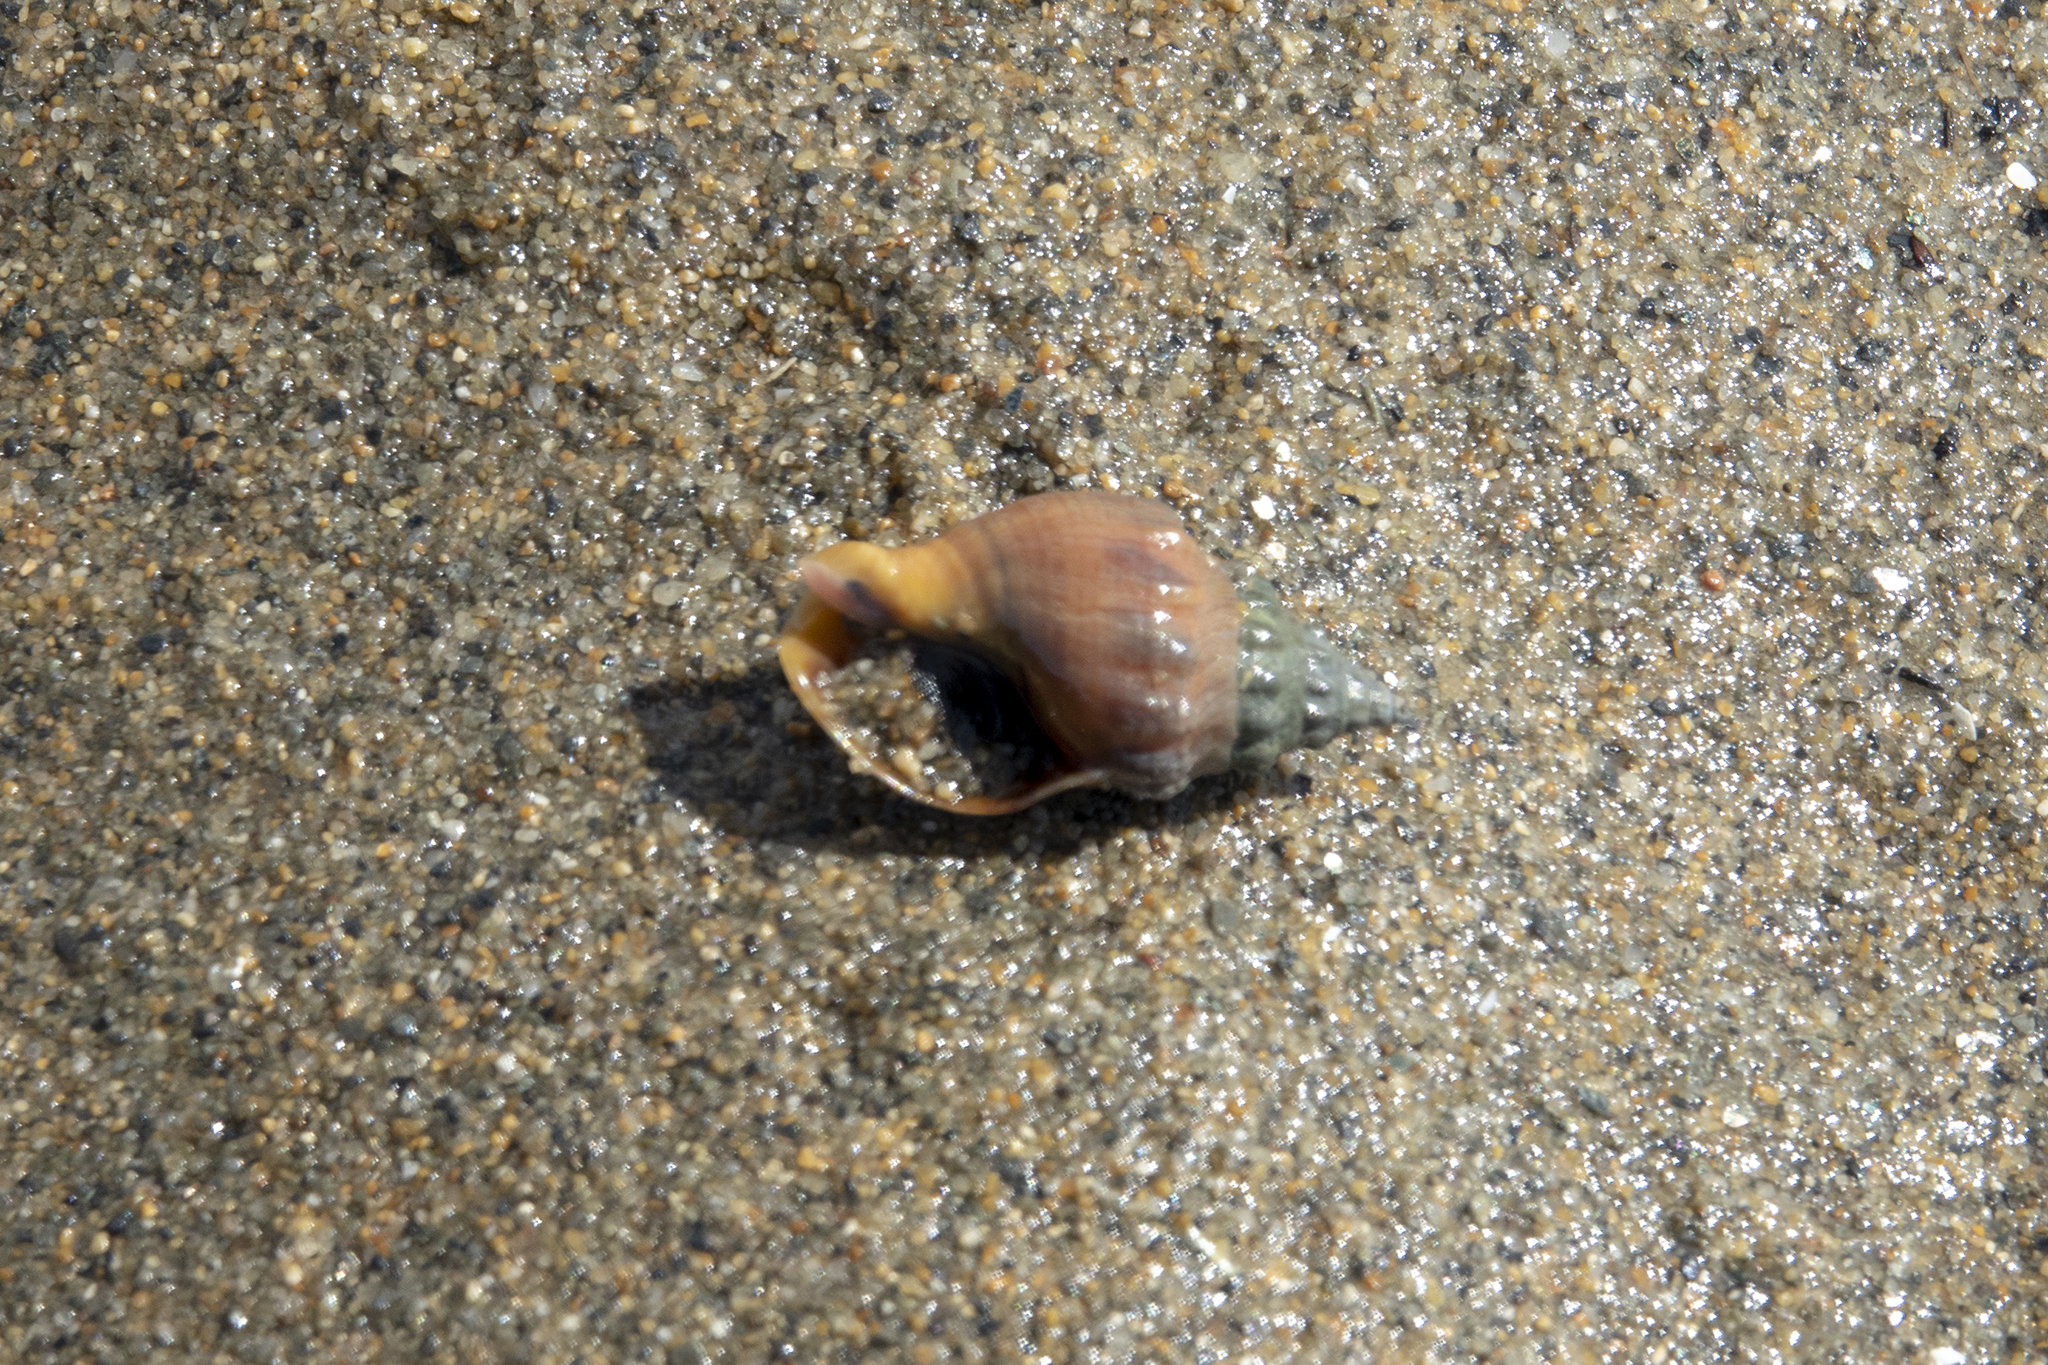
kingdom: Animalia
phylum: Mollusca
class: Gastropoda
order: Neogastropoda
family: Cominellidae
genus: Cominella
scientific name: Cominella glandiformis
